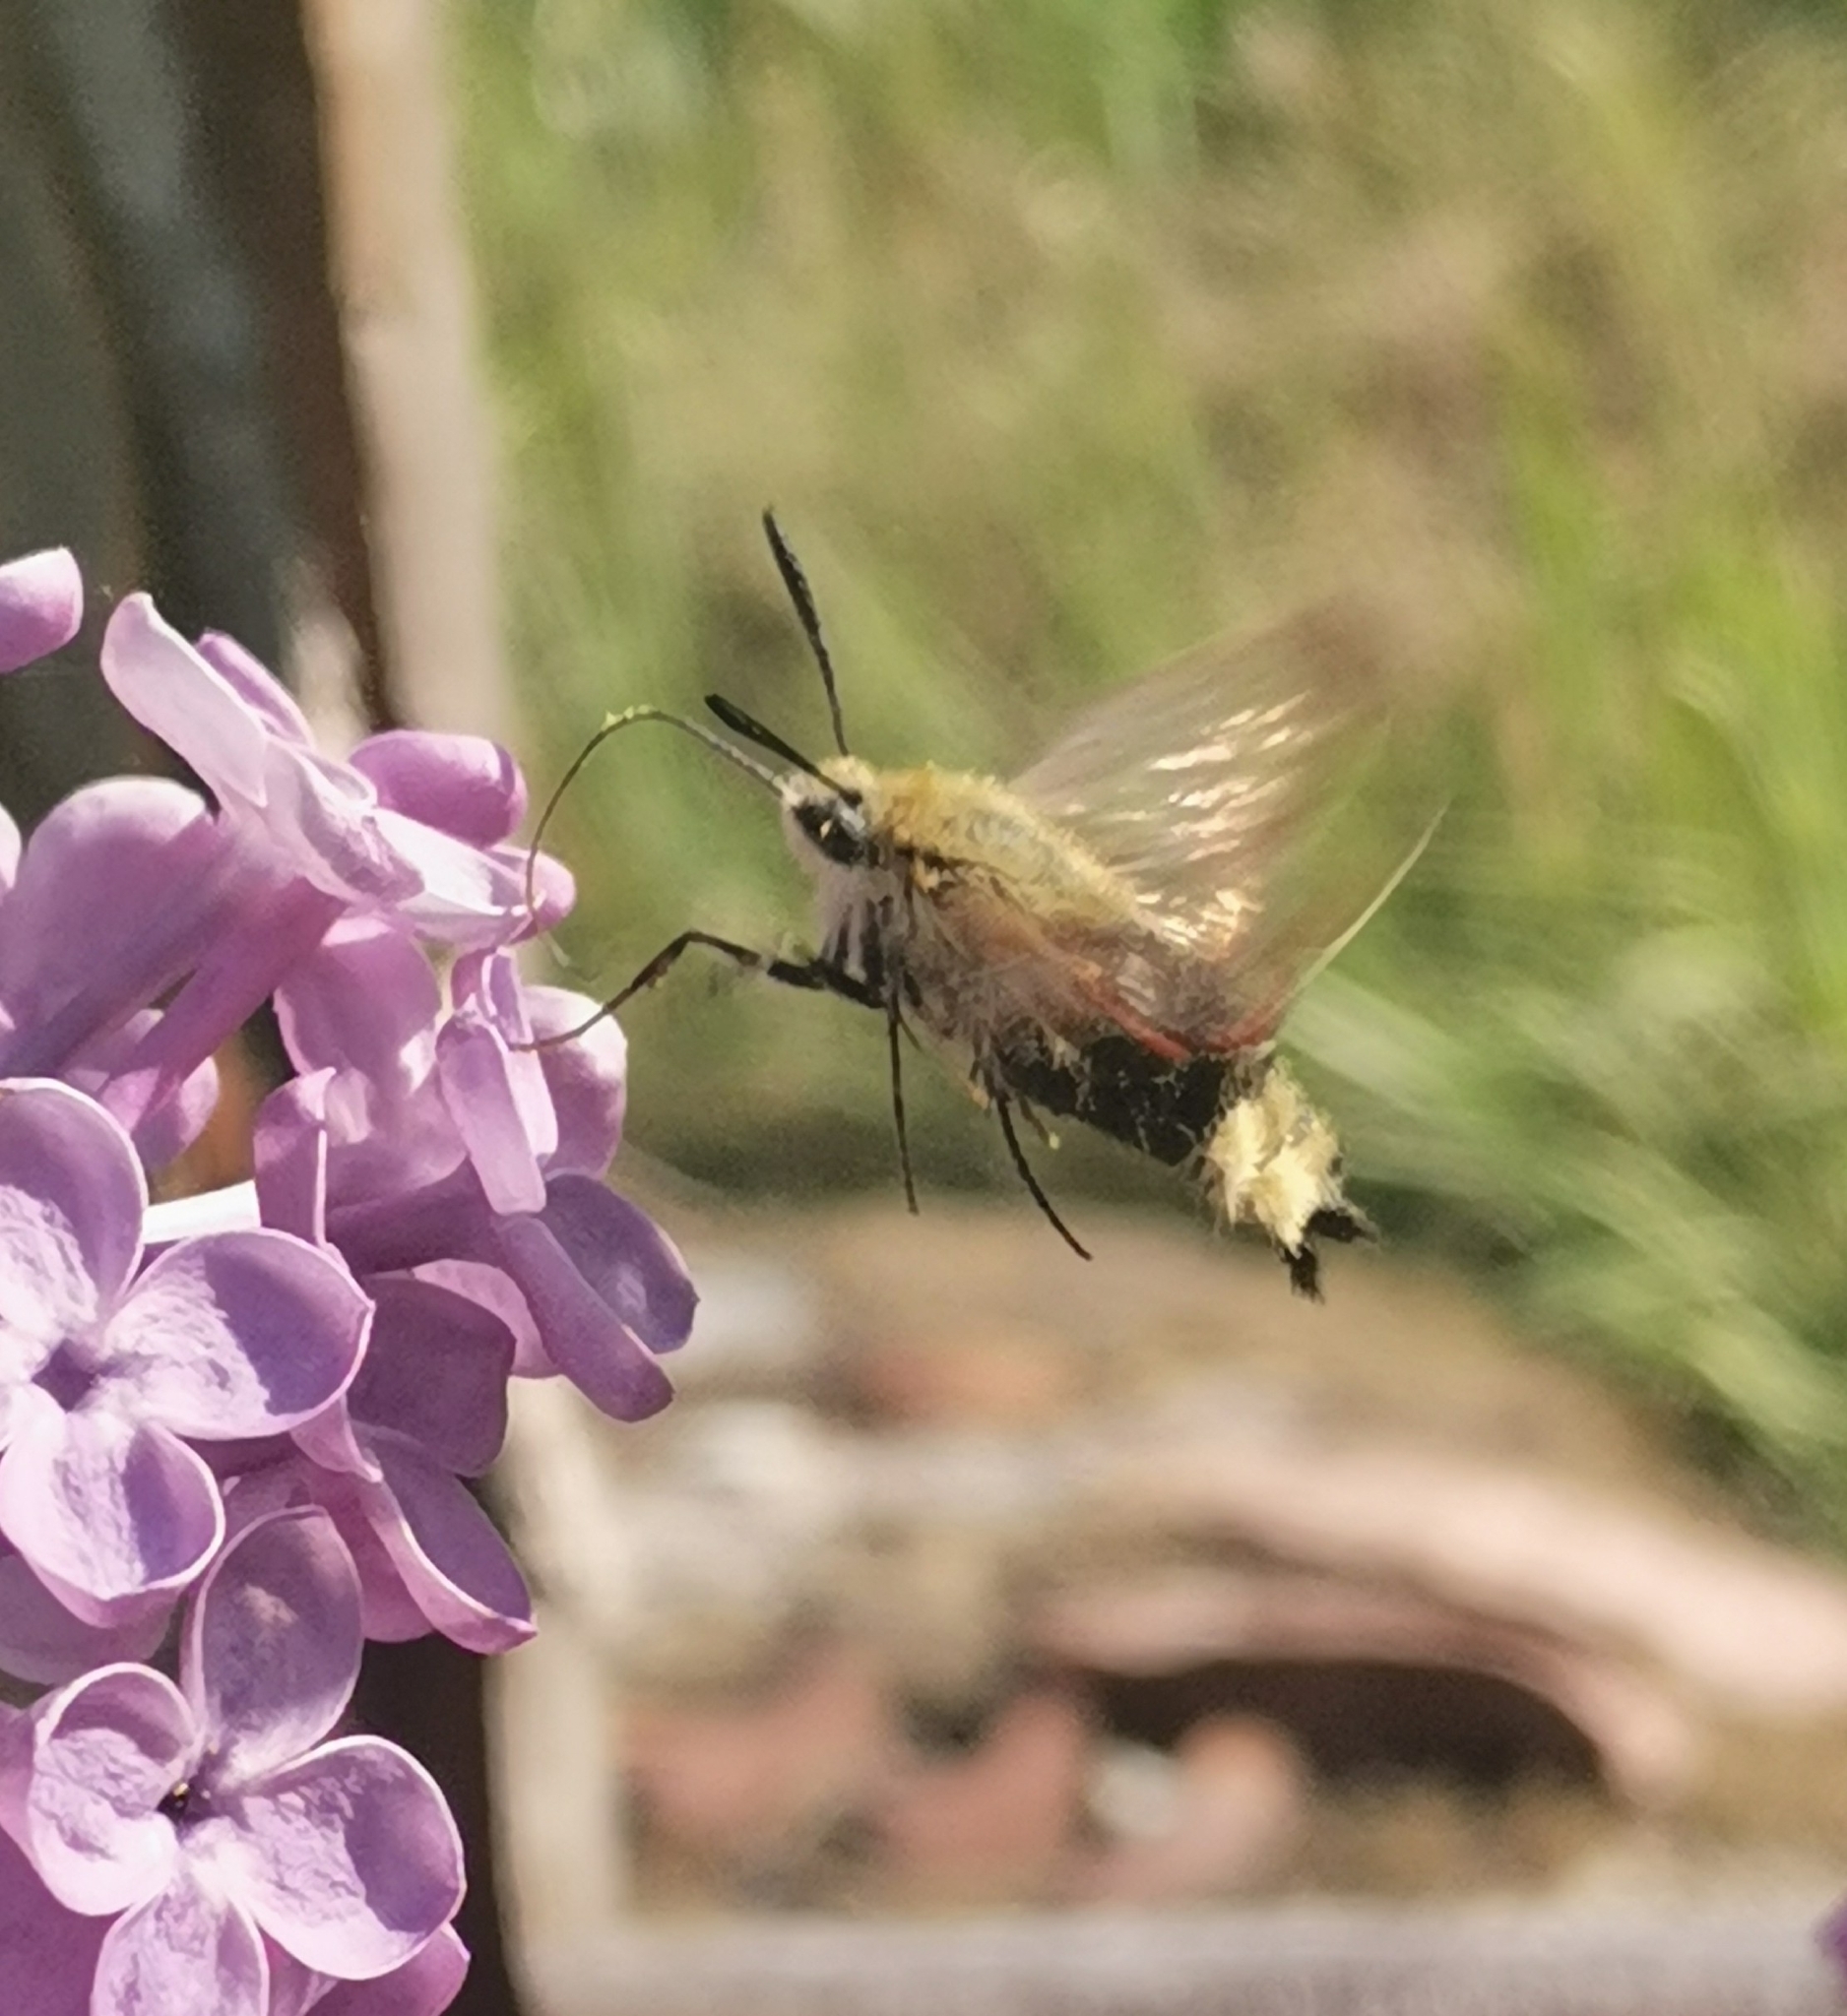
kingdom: Animalia
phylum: Arthropoda
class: Insecta
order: Lepidoptera
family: Sphingidae
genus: Hemaris
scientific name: Hemaris fuciformis
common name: Broad-bordered bee hawk-moth
